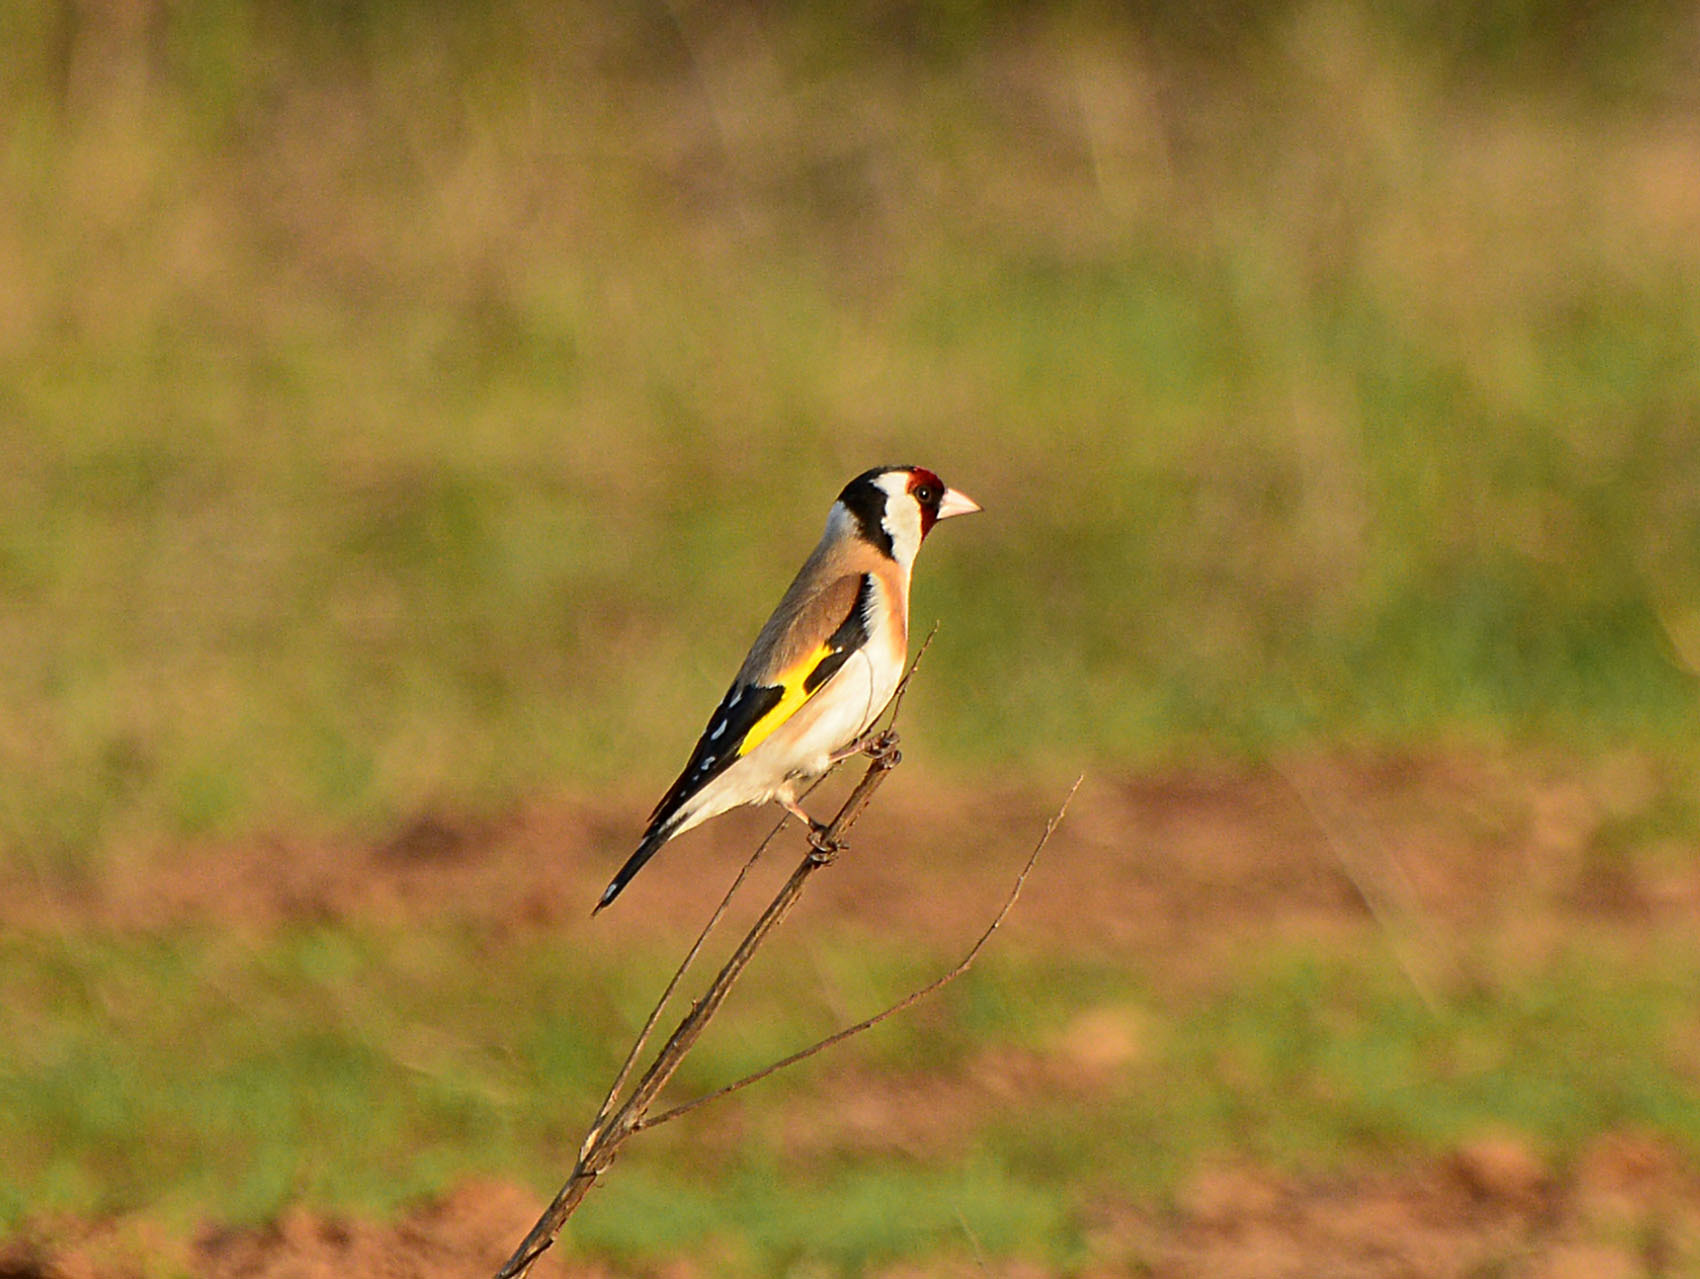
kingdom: Animalia
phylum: Chordata
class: Aves
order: Passeriformes
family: Fringillidae
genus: Carduelis
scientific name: Carduelis carduelis
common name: European goldfinch
